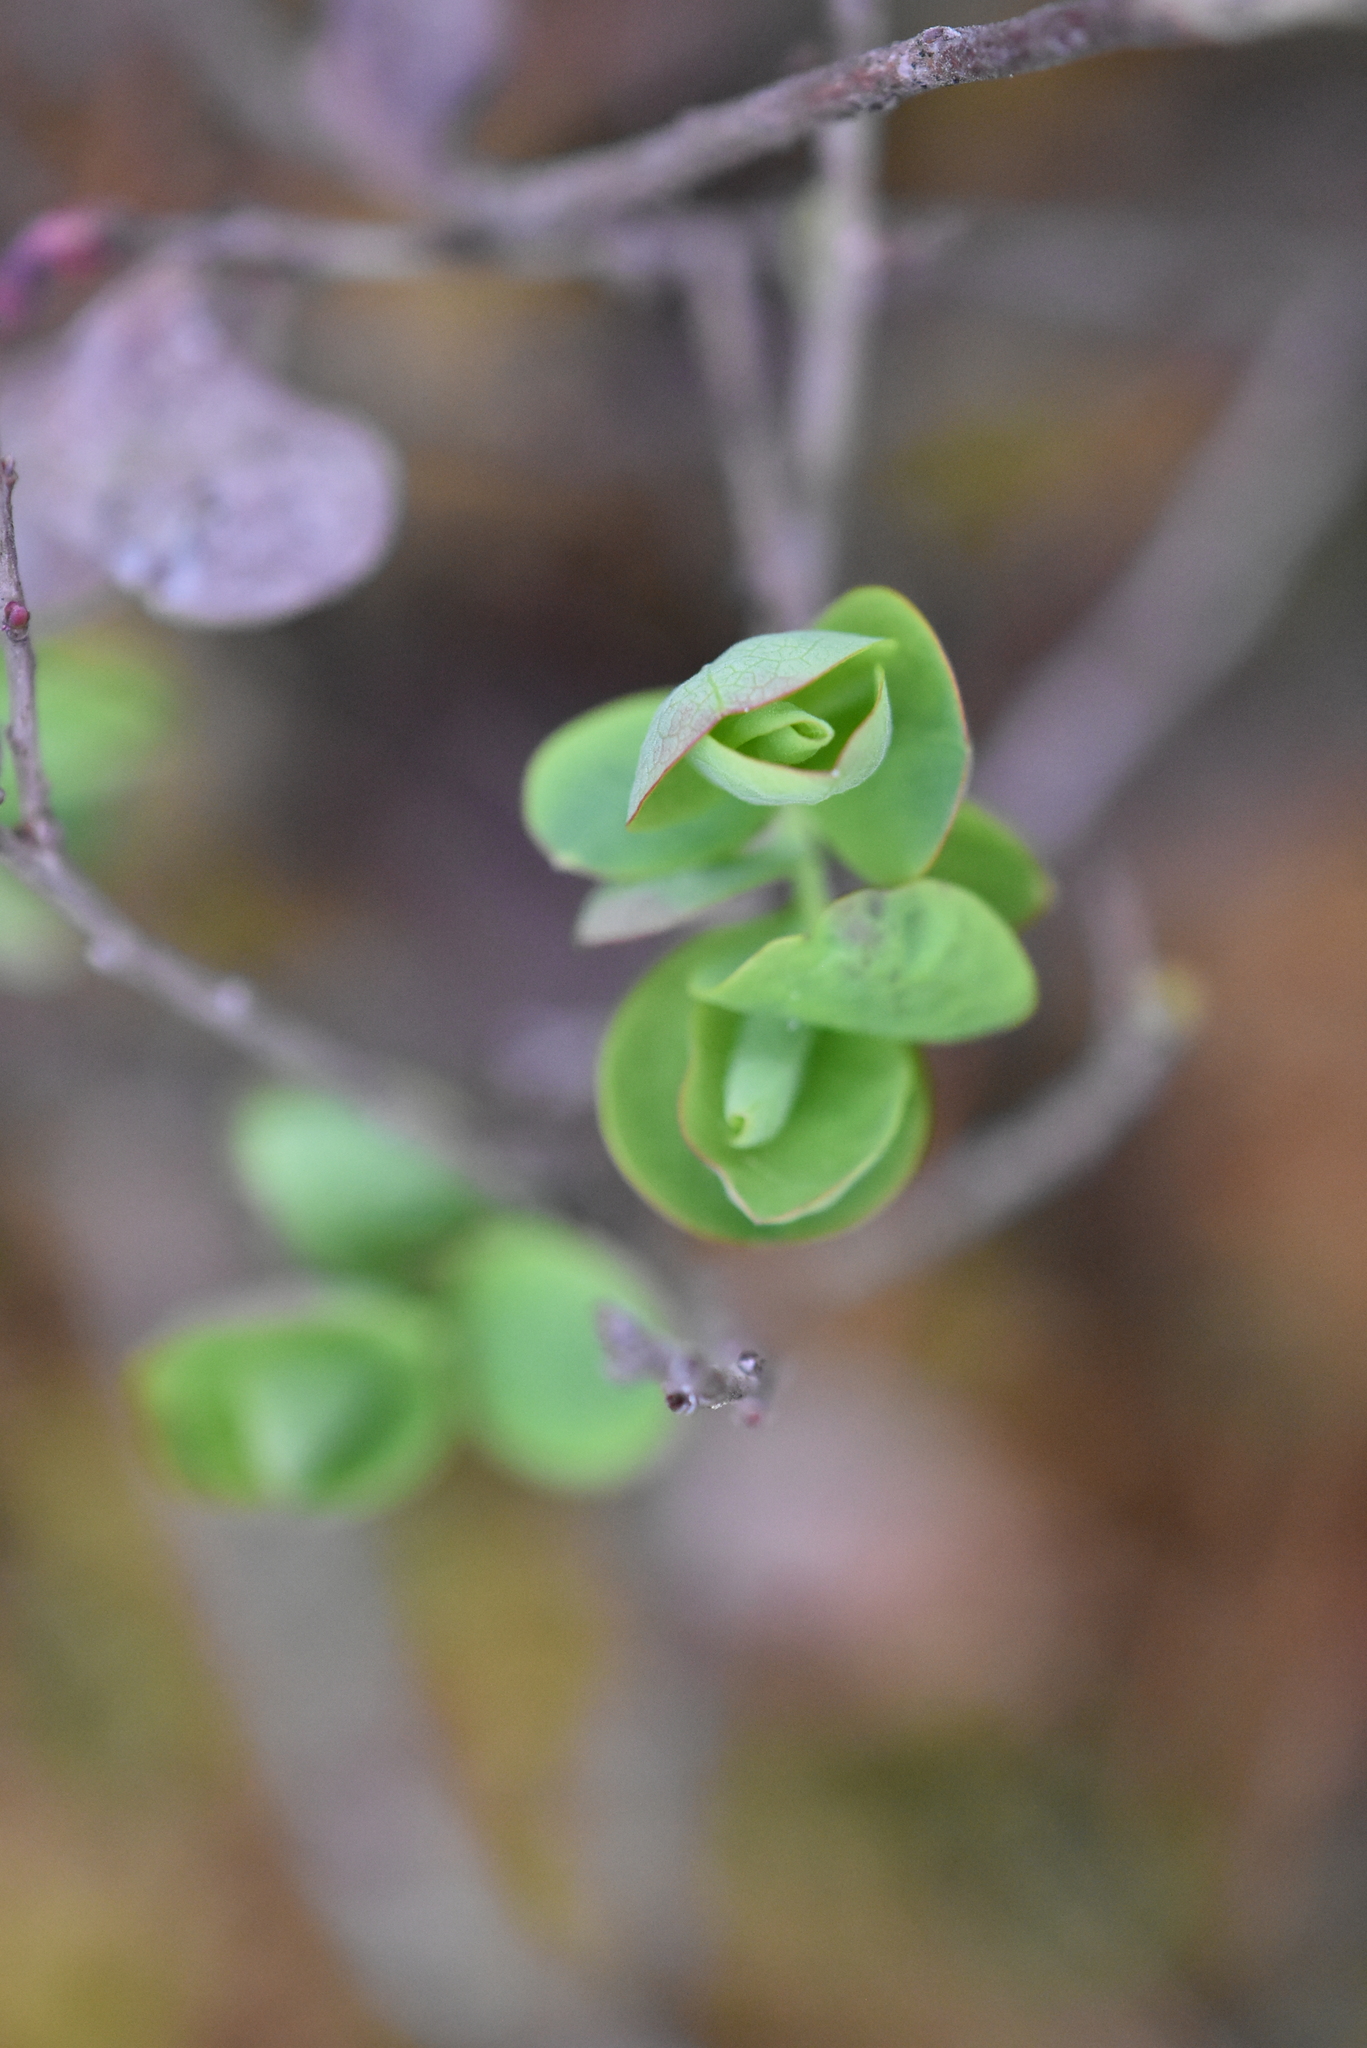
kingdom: Plantae
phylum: Tracheophyta
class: Magnoliopsida
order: Ericales
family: Ericaceae
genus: Vaccinium
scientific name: Vaccinium uliginosum
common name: Bog bilberry
